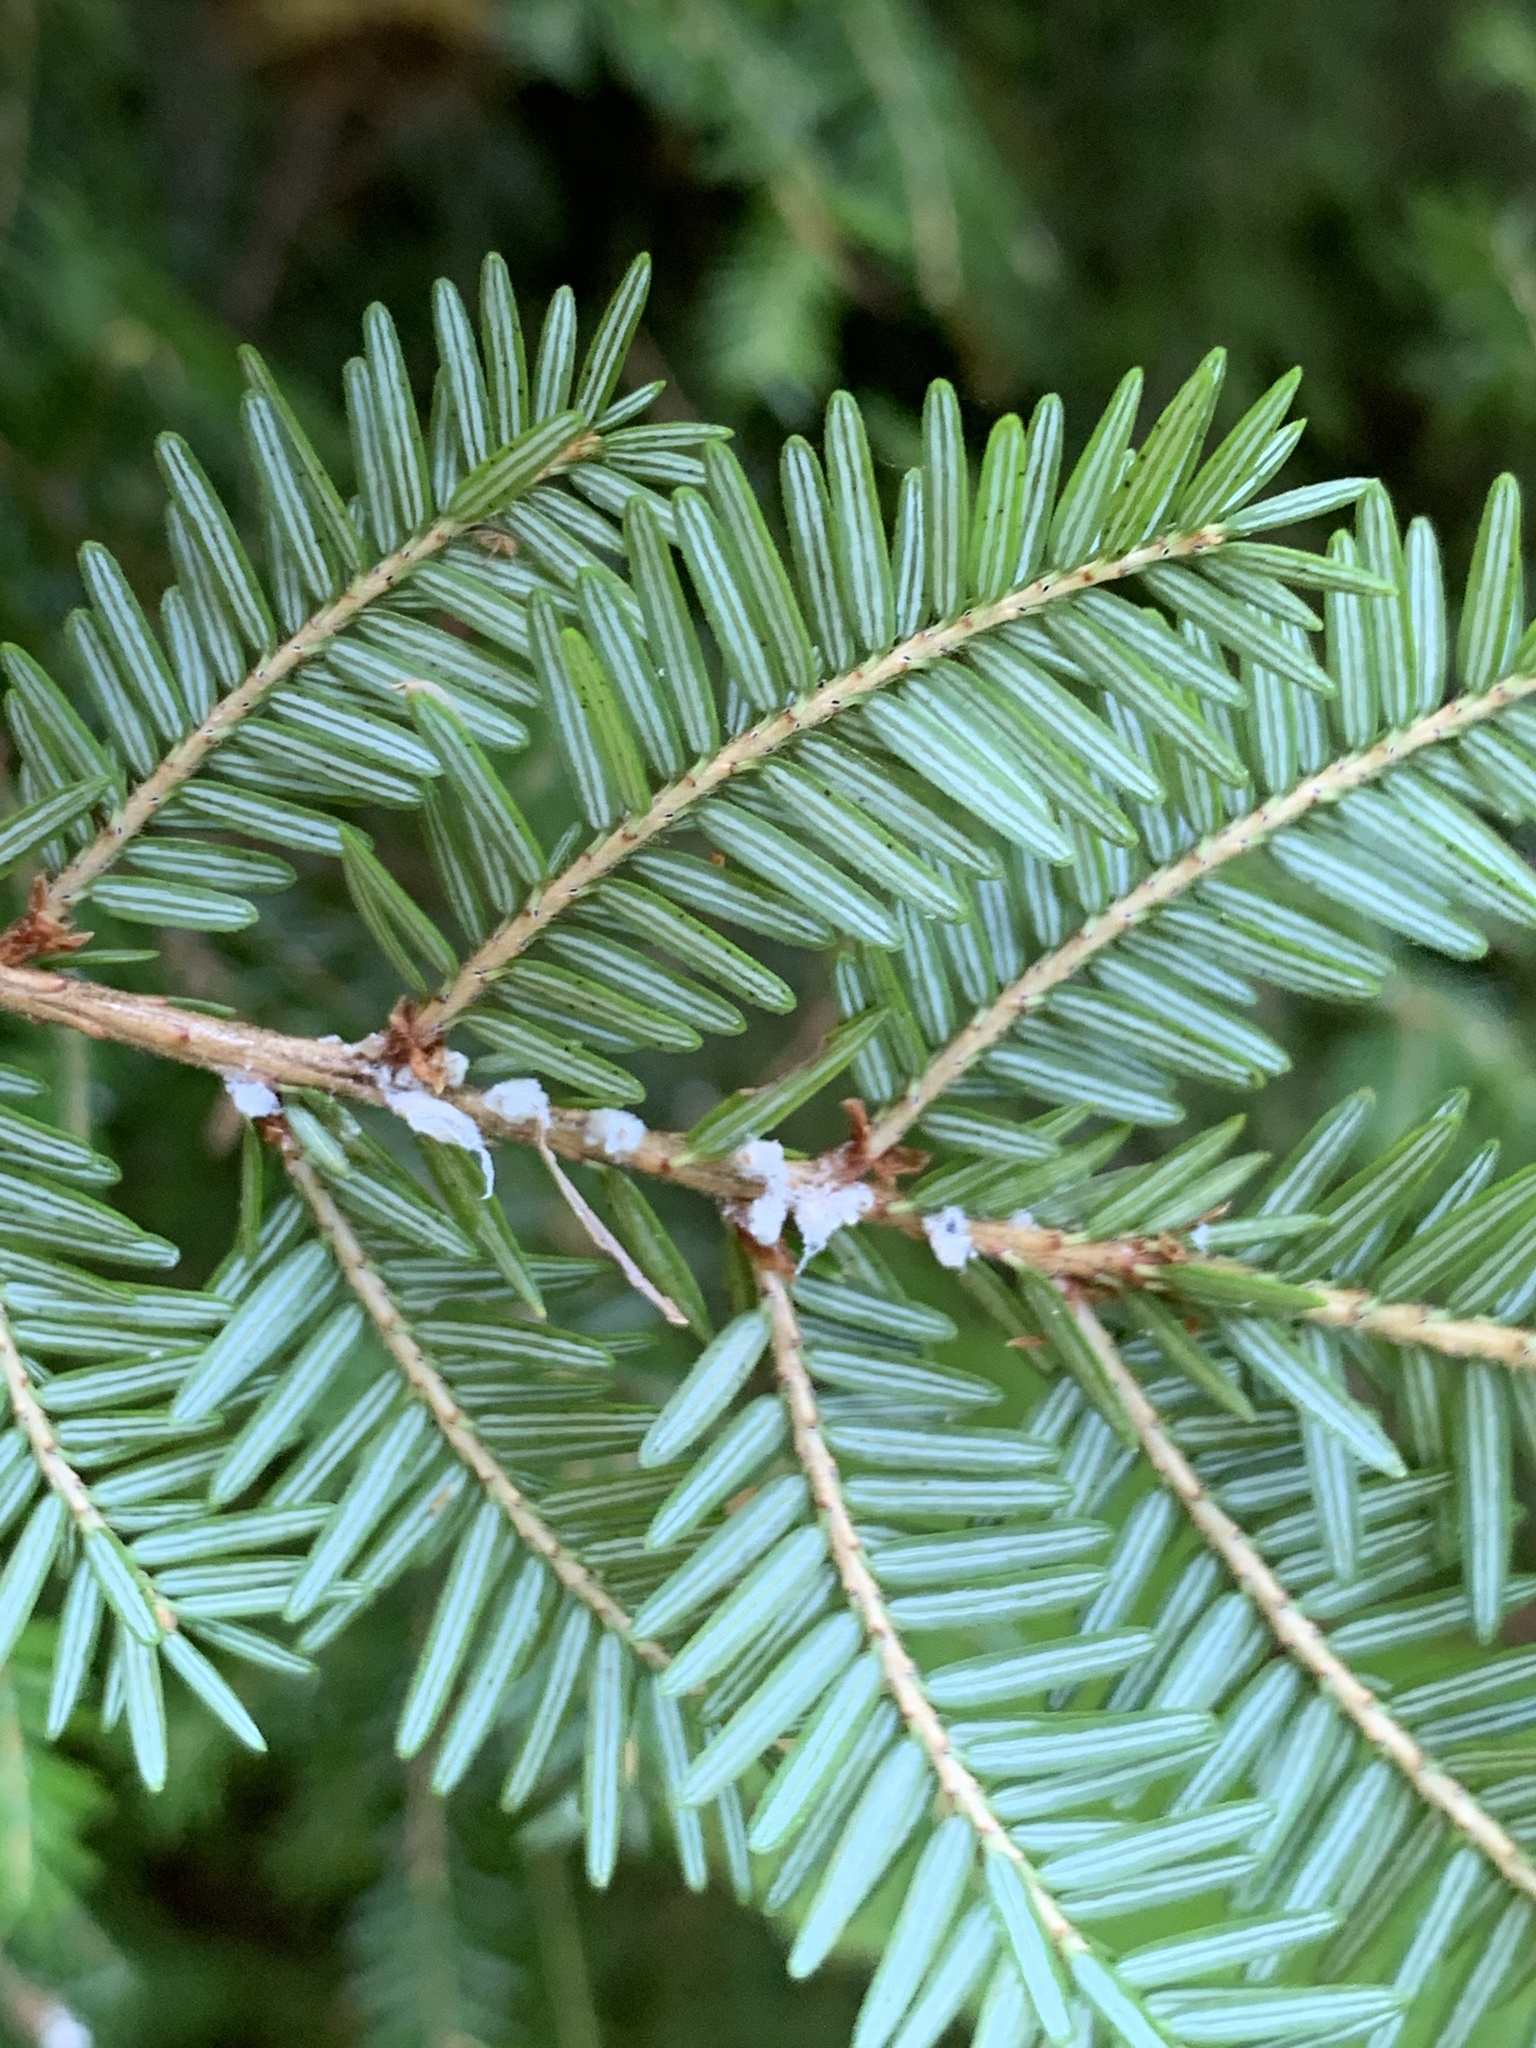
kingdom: Animalia
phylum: Arthropoda
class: Insecta
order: Hemiptera
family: Adelgidae
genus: Adelges
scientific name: Adelges tsugae
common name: Hemlock woolly adelgid
